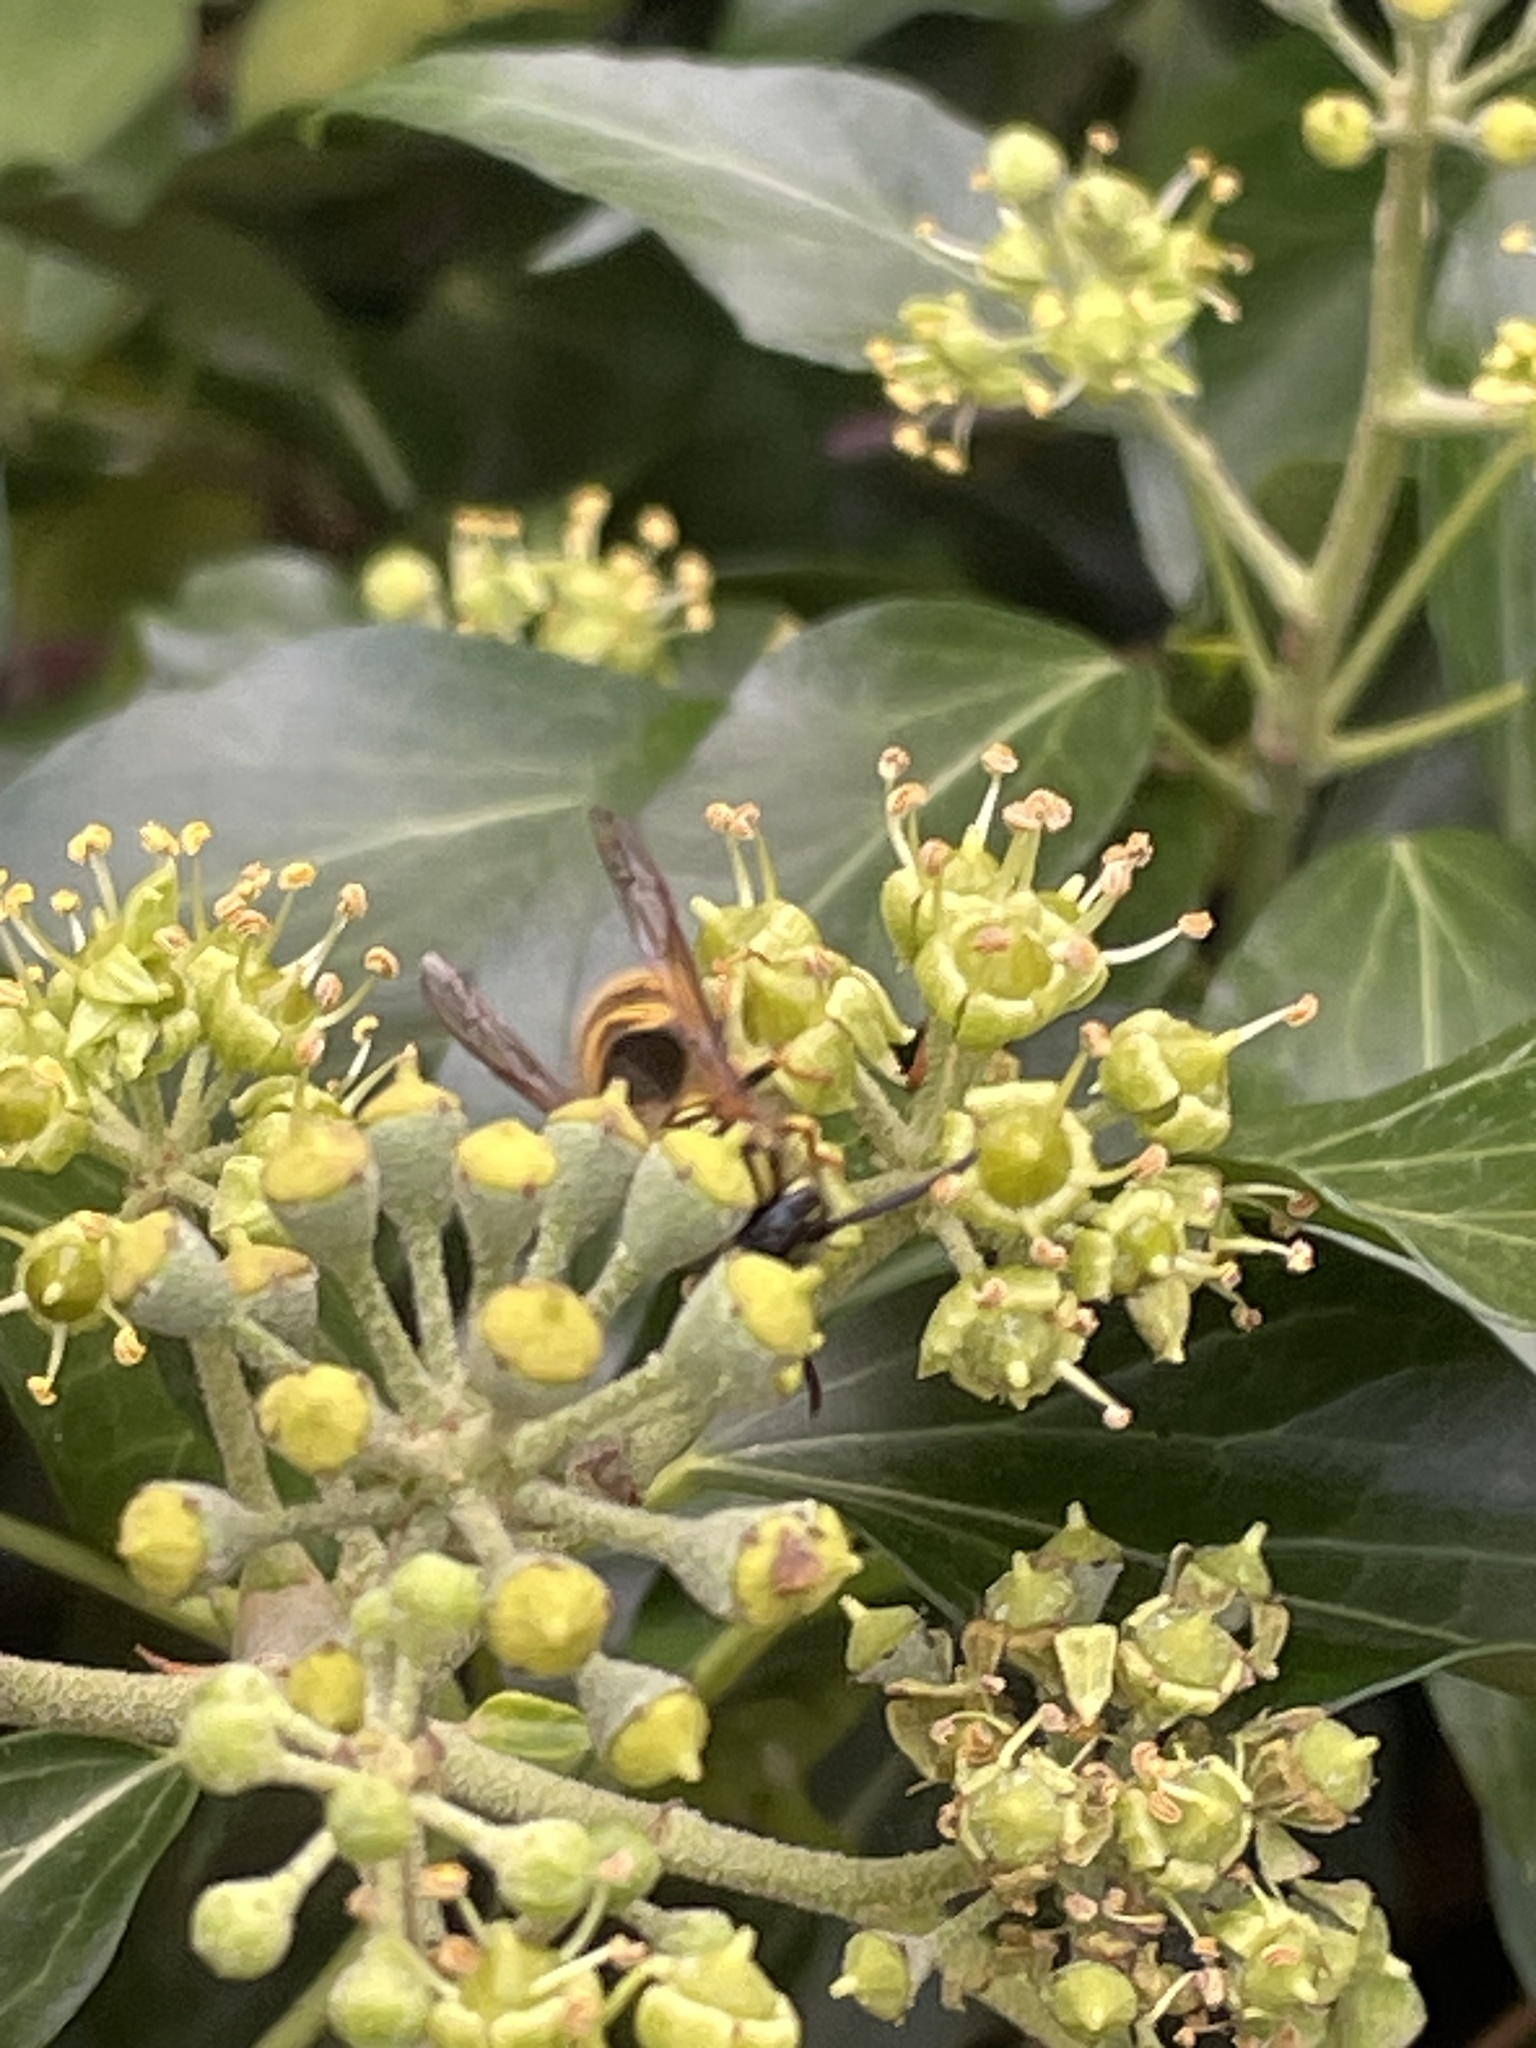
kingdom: Animalia
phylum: Arthropoda
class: Insecta
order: Hymenoptera
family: Vespidae
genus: Vespula
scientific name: Vespula vulgaris
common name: Common wasp
